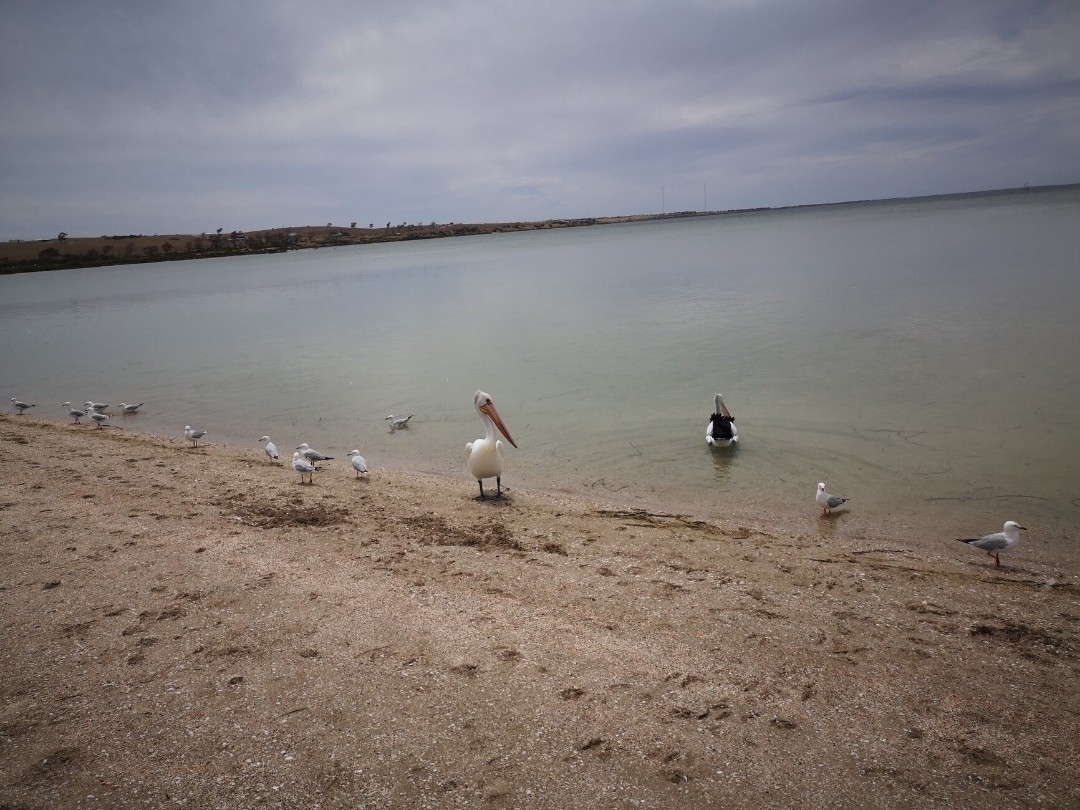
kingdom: Animalia
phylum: Chordata
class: Aves
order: Pelecaniformes
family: Pelecanidae
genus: Pelecanus
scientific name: Pelecanus conspicillatus
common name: Australian pelican
